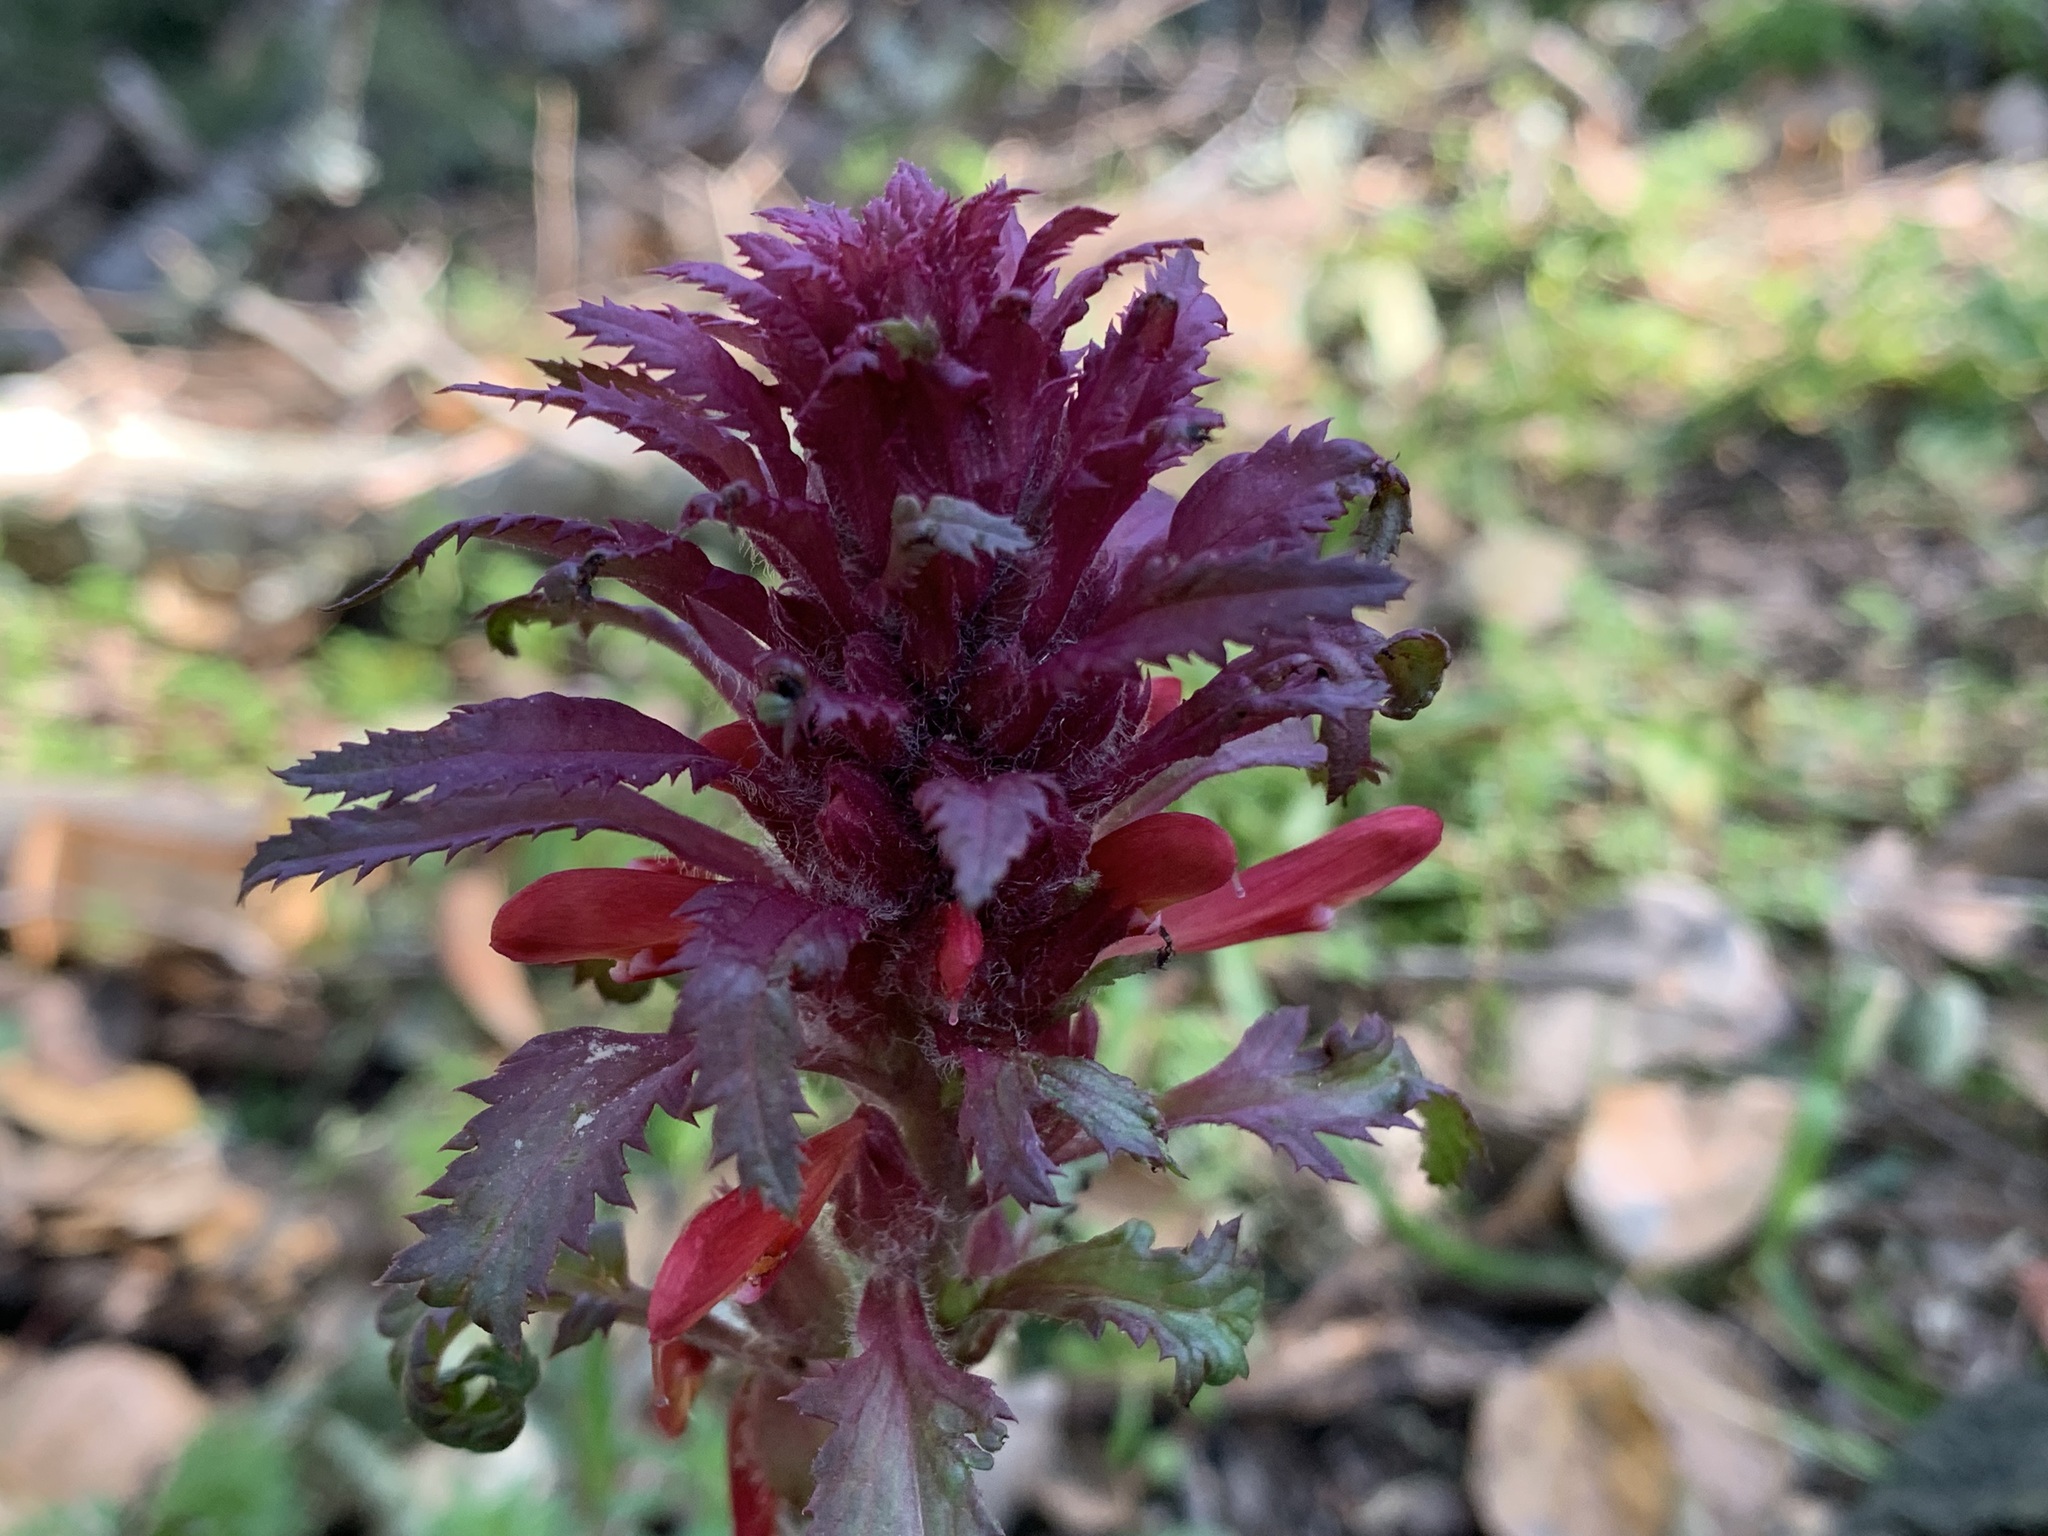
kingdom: Plantae
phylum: Tracheophyta
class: Magnoliopsida
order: Lamiales
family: Orobanchaceae
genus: Pedicularis
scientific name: Pedicularis densiflora
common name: Indian warrior
